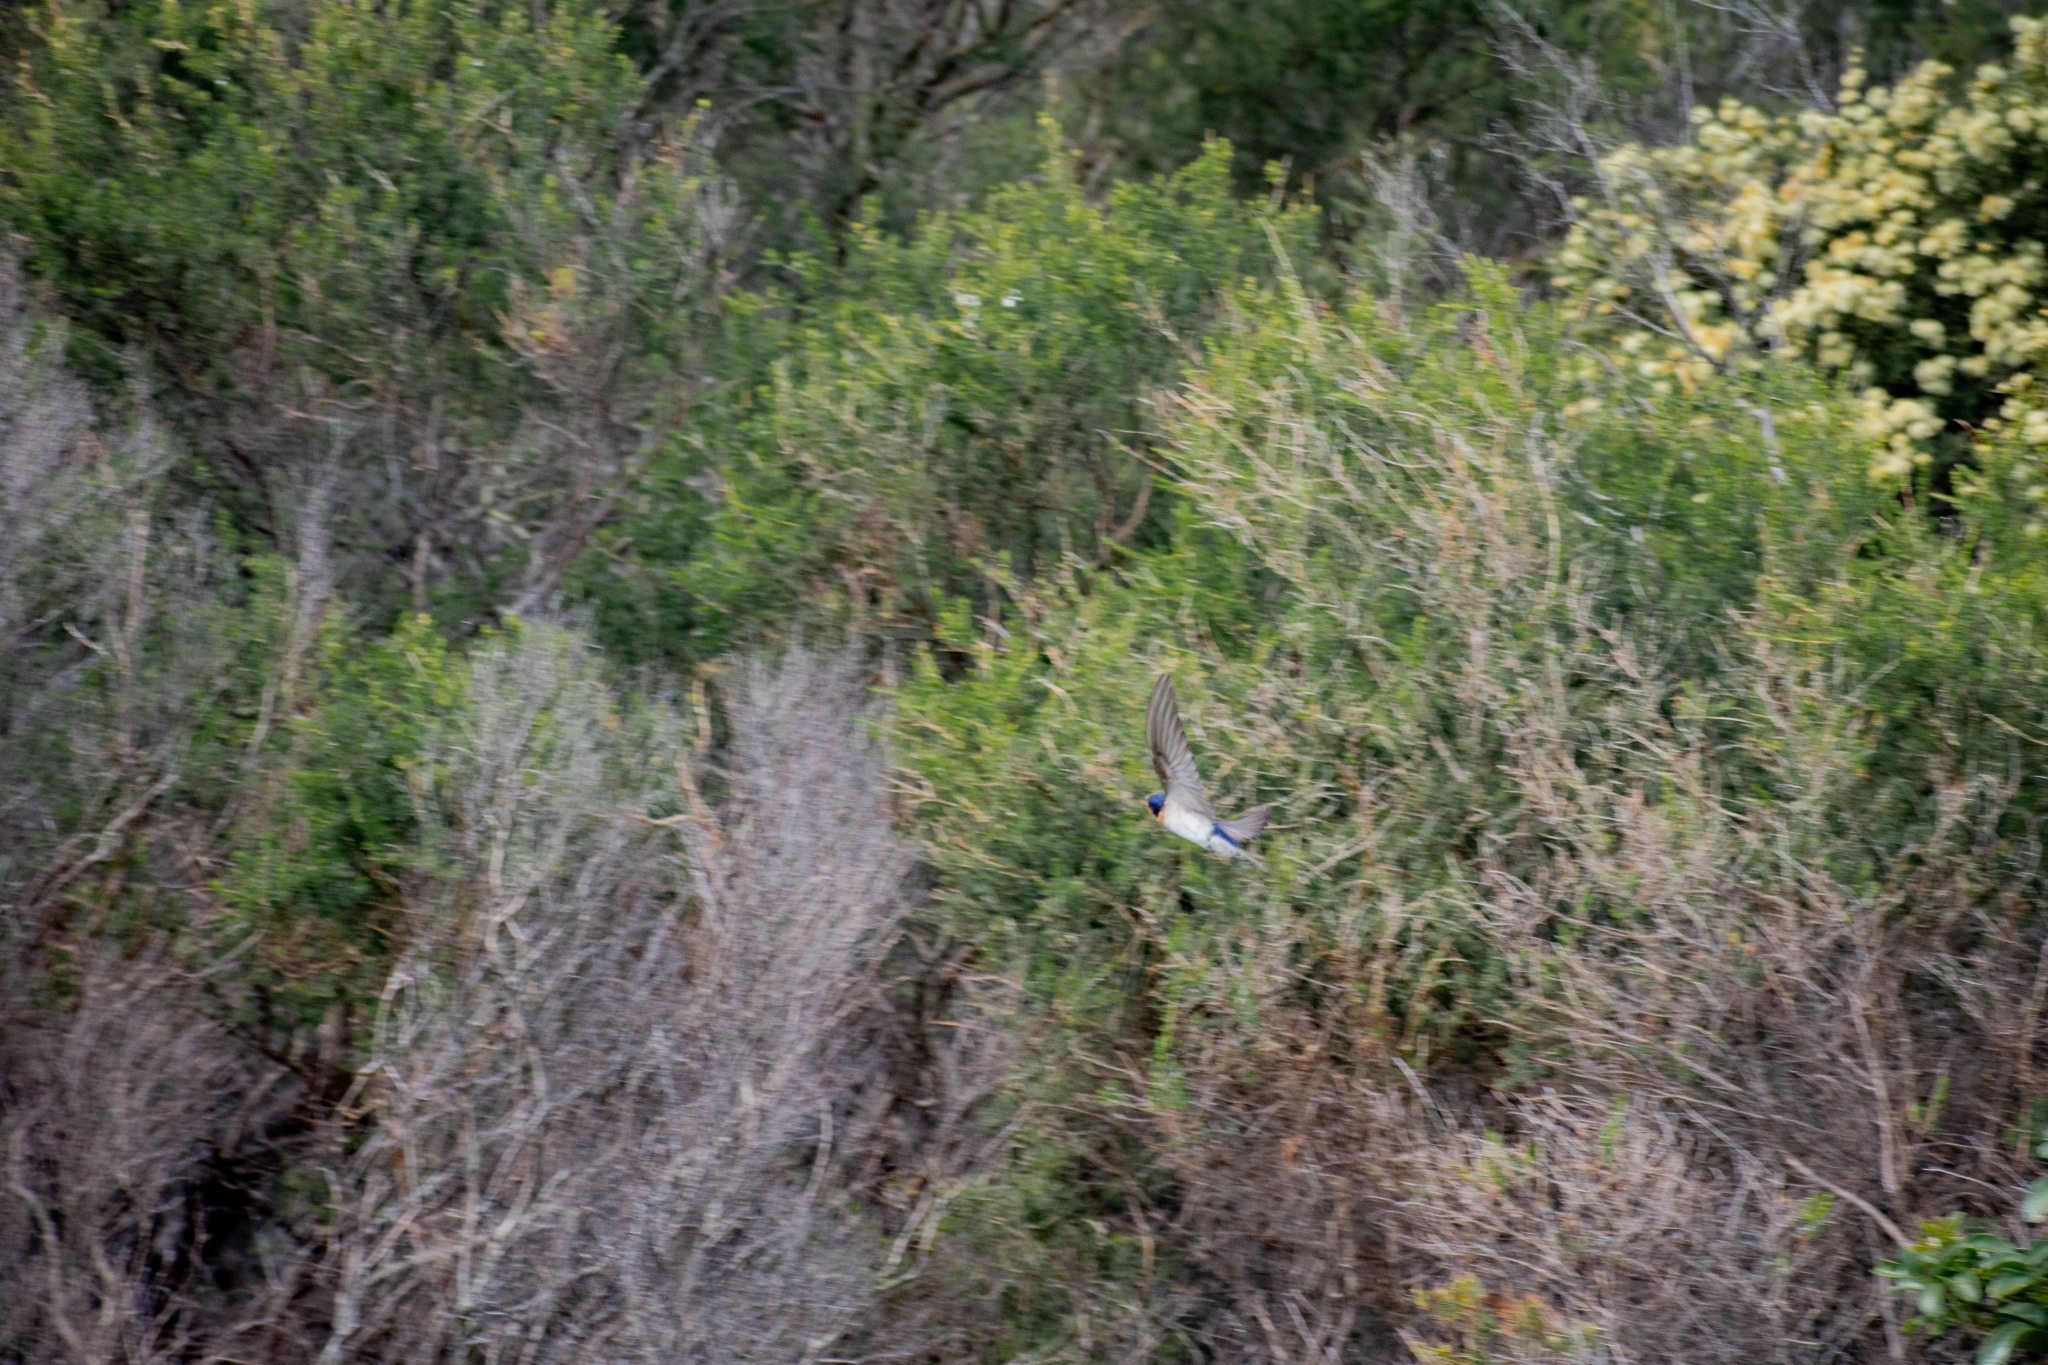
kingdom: Animalia
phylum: Chordata
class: Aves
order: Passeriformes
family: Hirundinidae
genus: Hirundo
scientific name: Hirundo neoxena
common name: Welcome swallow
